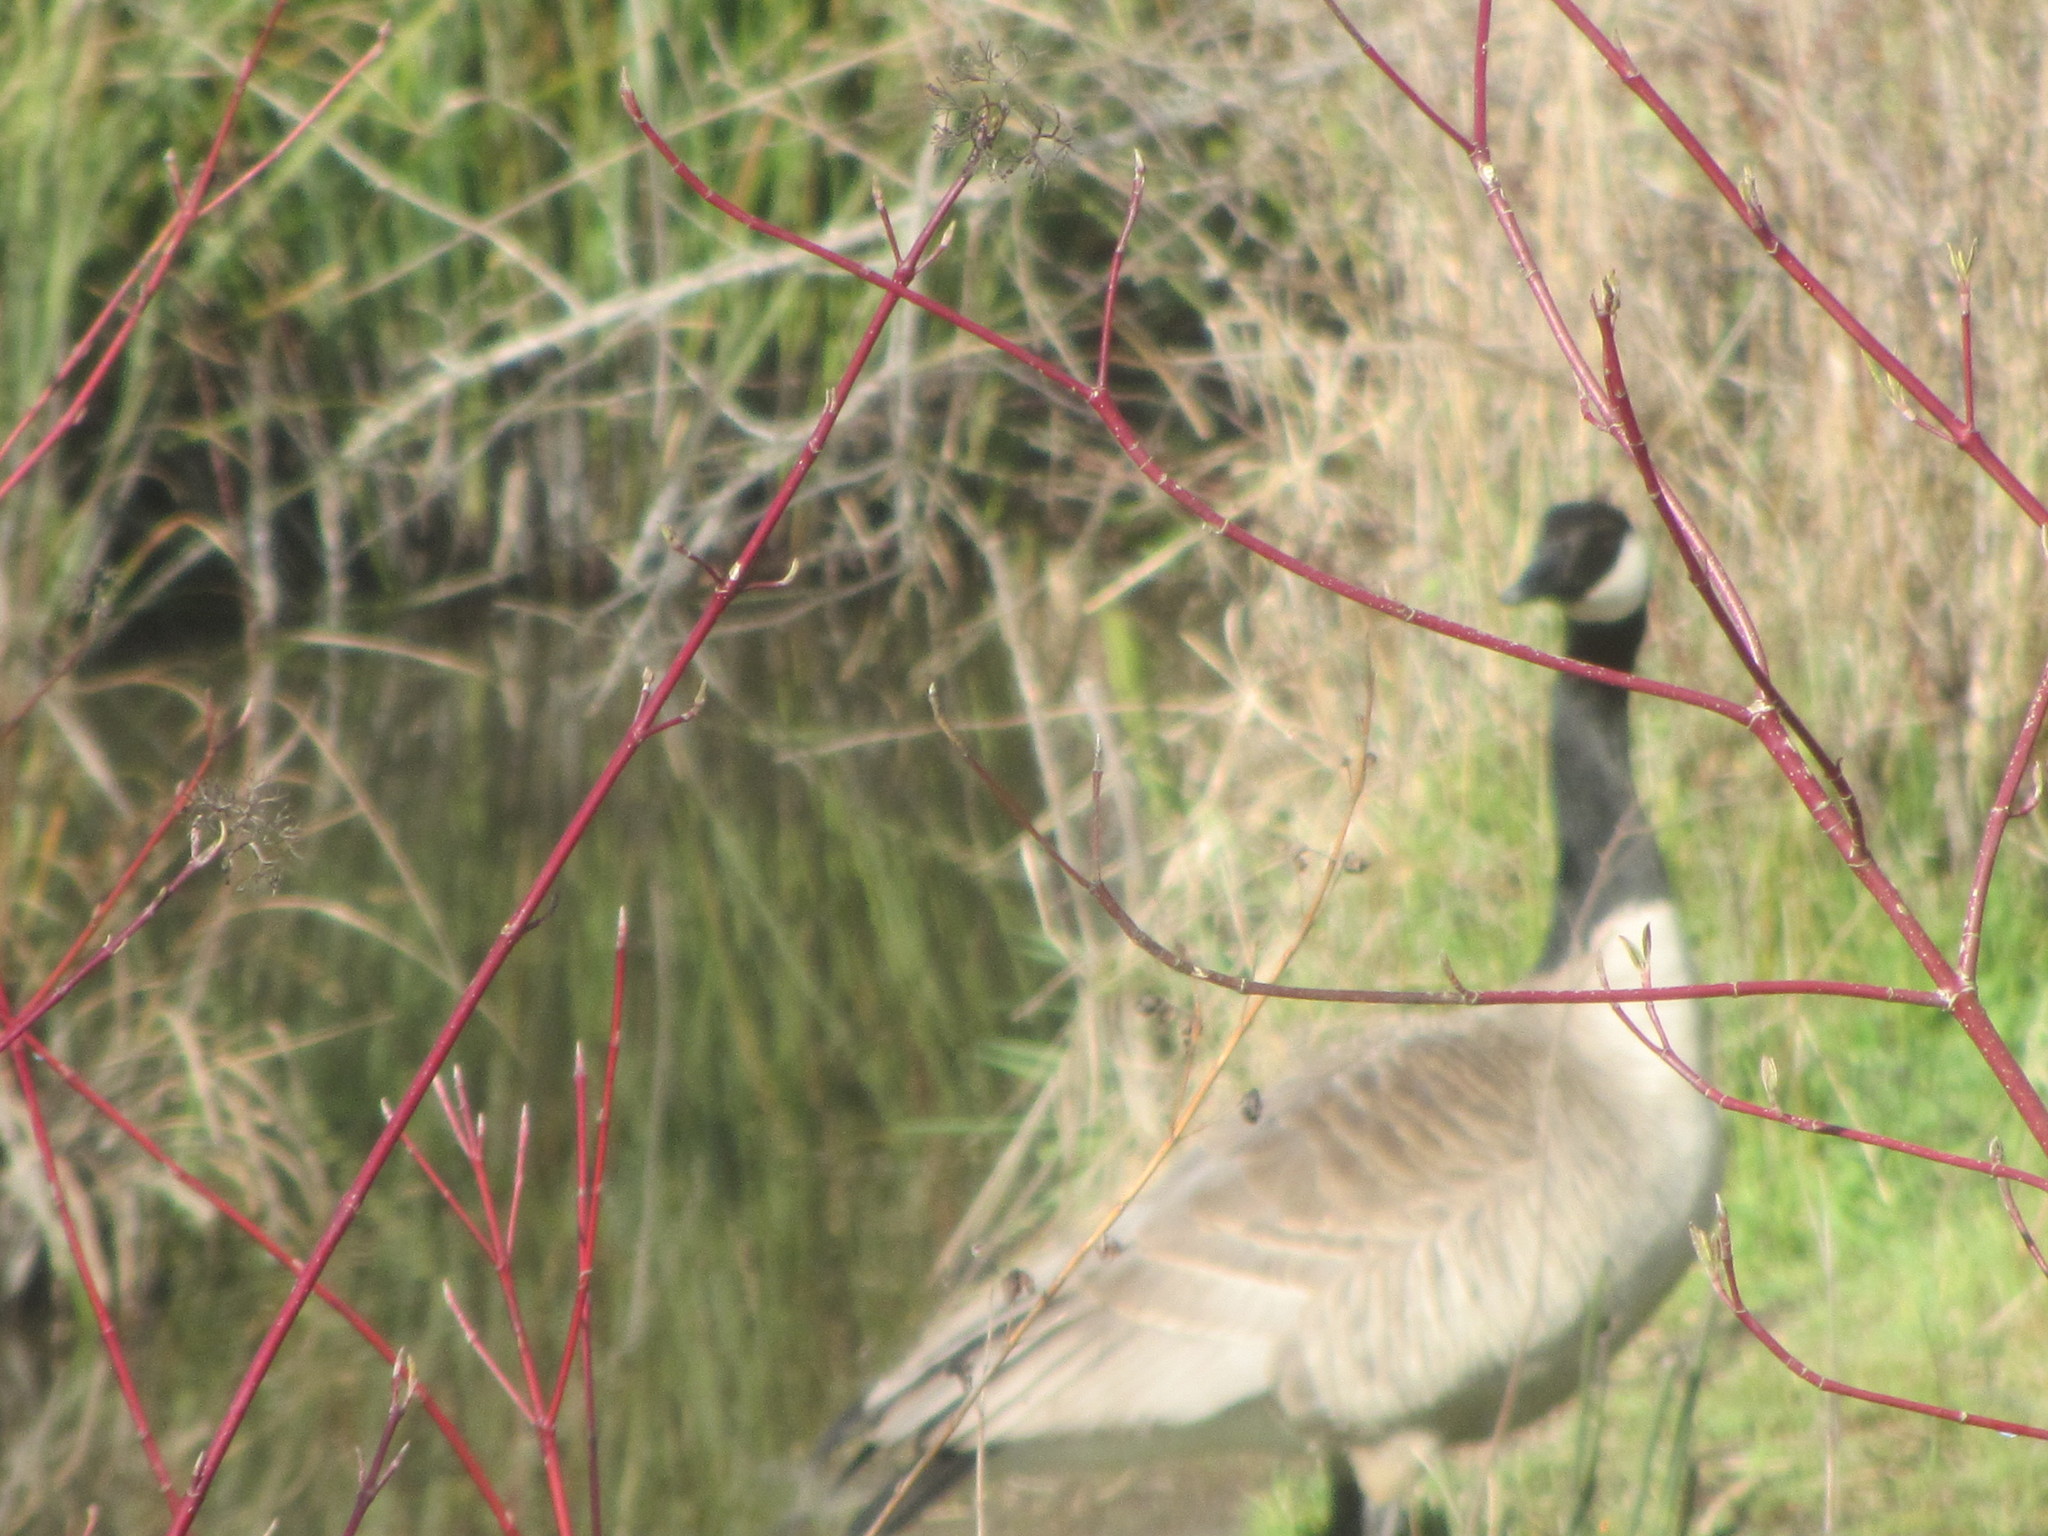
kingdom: Animalia
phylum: Chordata
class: Aves
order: Anseriformes
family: Anatidae
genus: Branta
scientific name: Branta canadensis
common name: Canada goose
